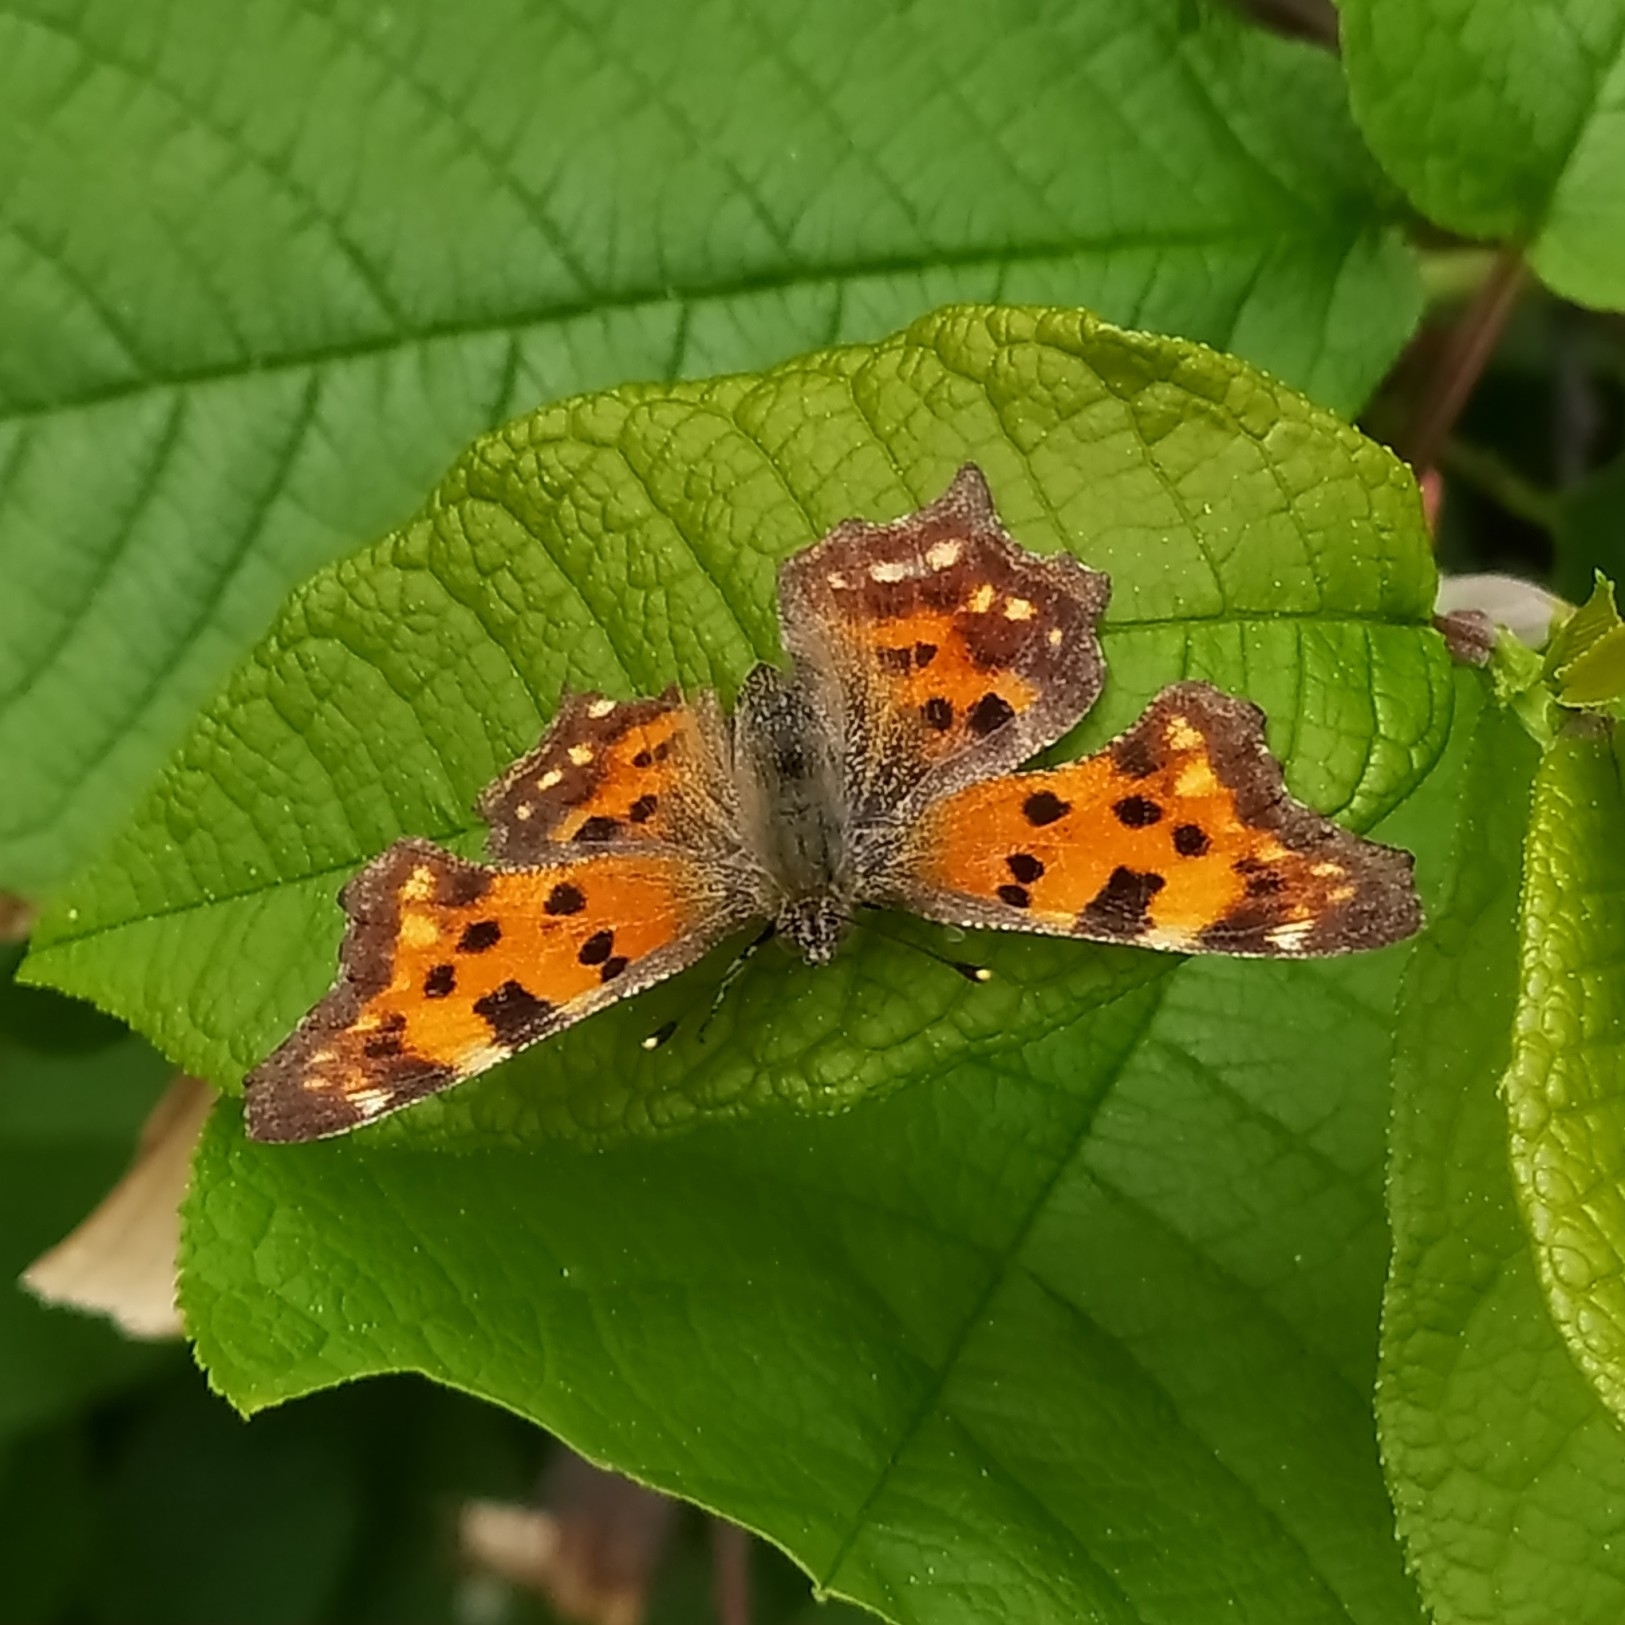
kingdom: Animalia
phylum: Arthropoda
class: Insecta
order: Lepidoptera
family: Nymphalidae
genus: Polygonia
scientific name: Polygonia c-album
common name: Comma
